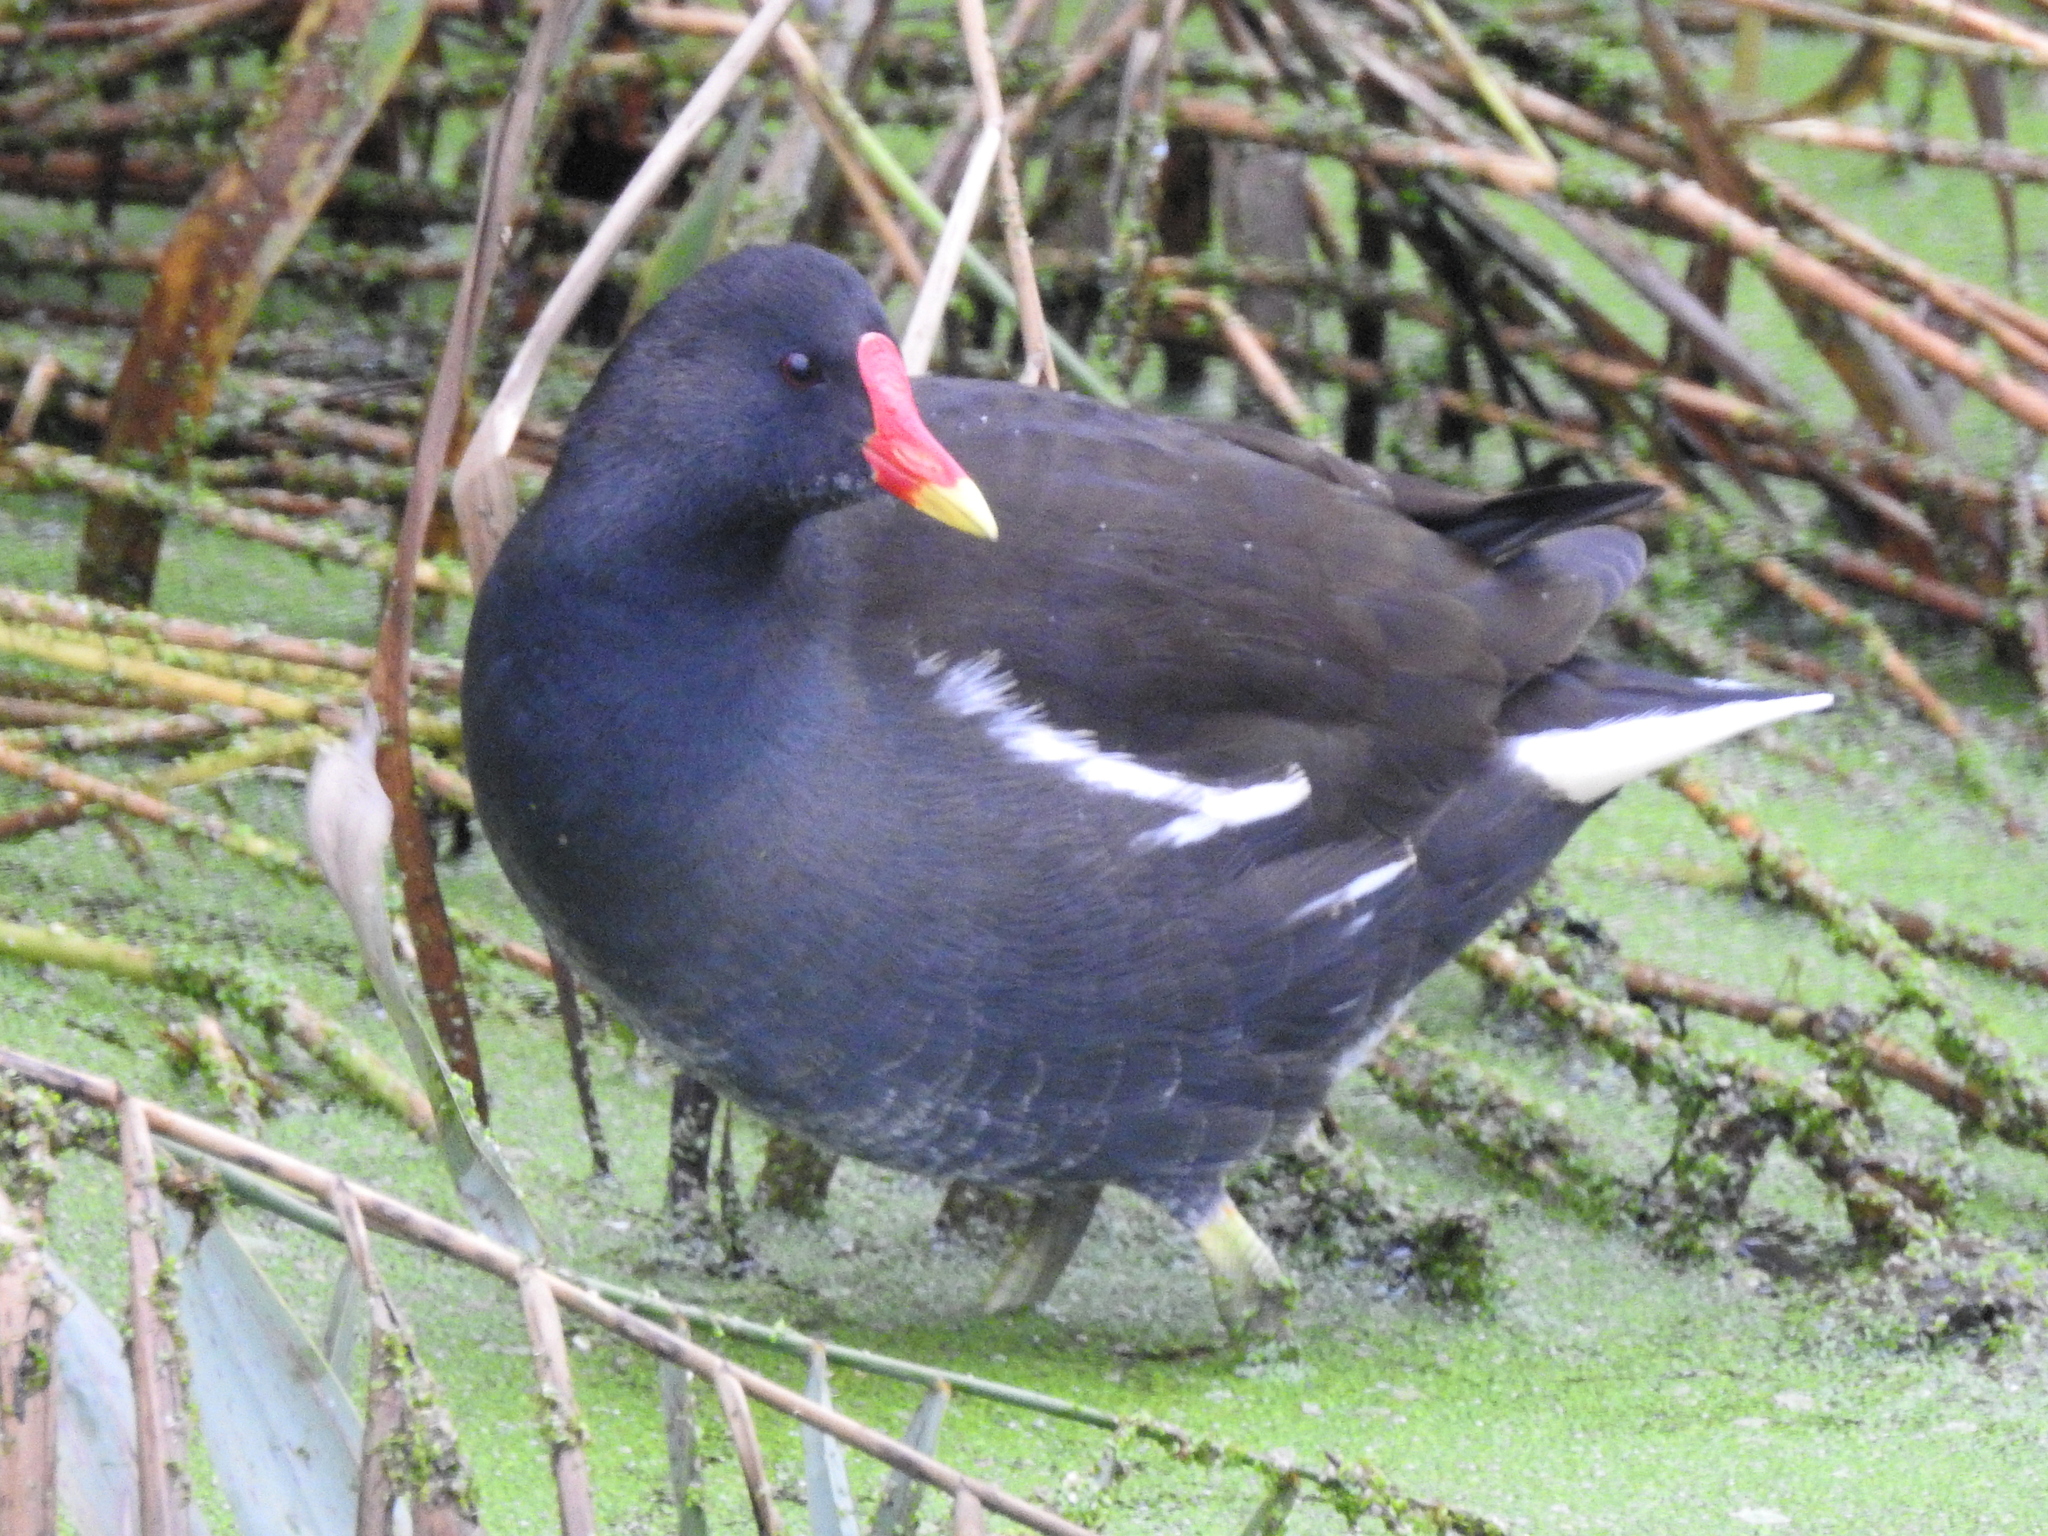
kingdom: Animalia
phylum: Chordata
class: Aves
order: Gruiformes
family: Rallidae
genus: Gallinula
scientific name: Gallinula chloropus
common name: Common moorhen
